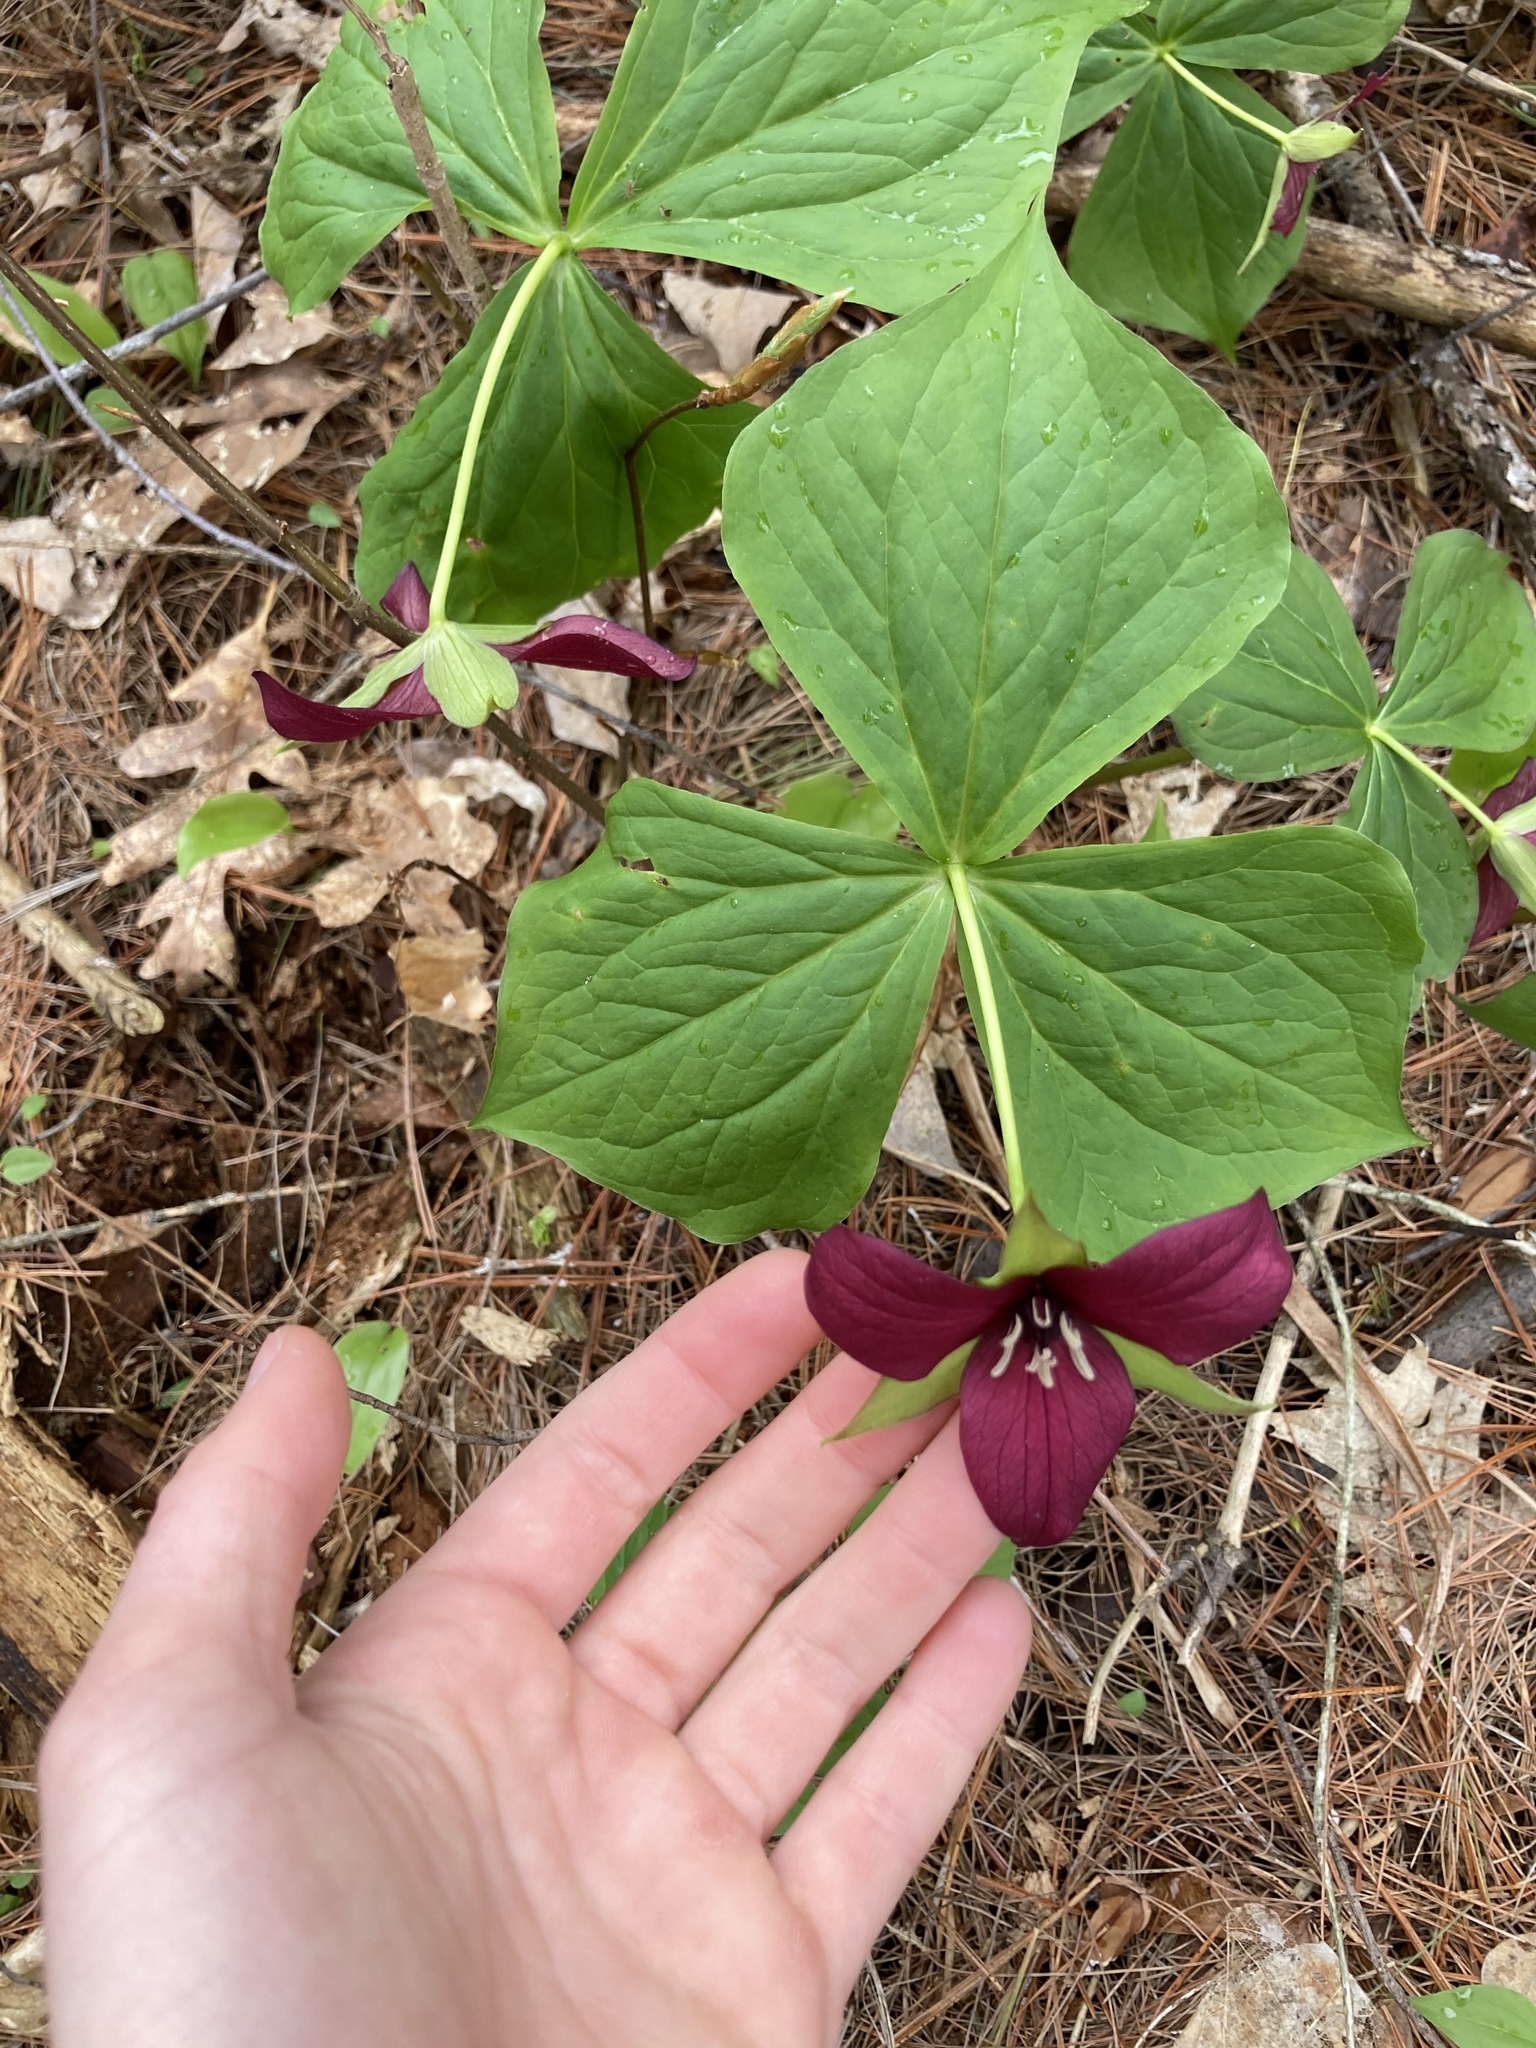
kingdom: Plantae
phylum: Tracheophyta
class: Liliopsida
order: Liliales
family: Melanthiaceae
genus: Trillium
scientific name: Trillium erectum
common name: Purple trillium
